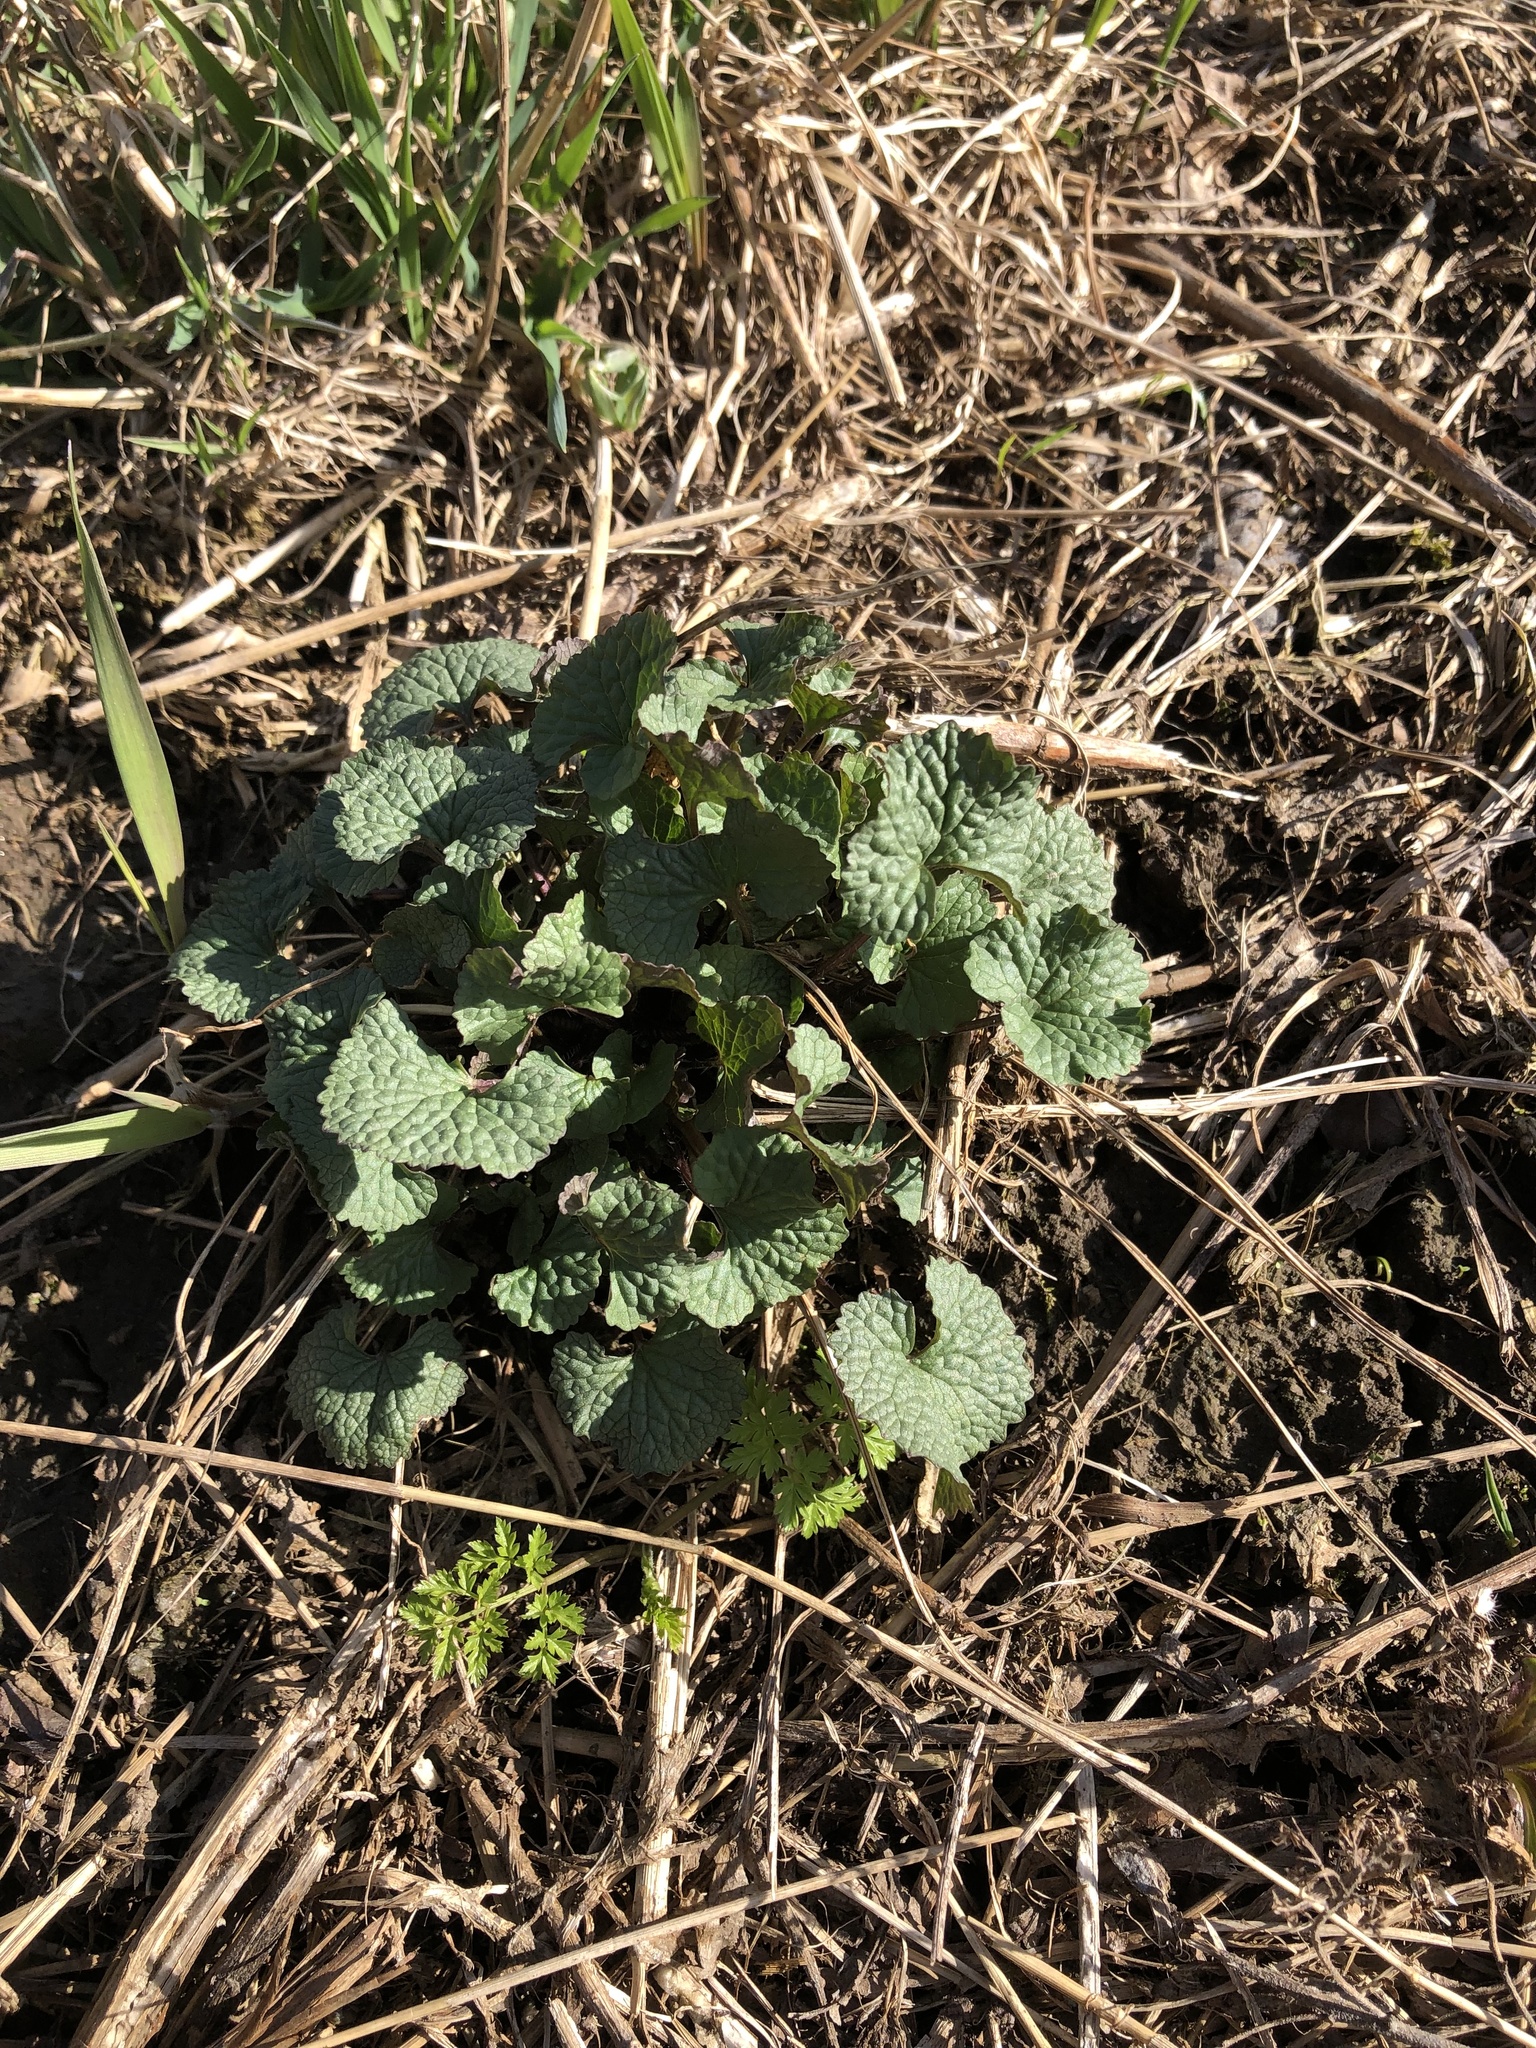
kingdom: Plantae
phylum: Tracheophyta
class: Magnoliopsida
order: Brassicales
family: Brassicaceae
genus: Alliaria
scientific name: Alliaria petiolata
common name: Garlic mustard
